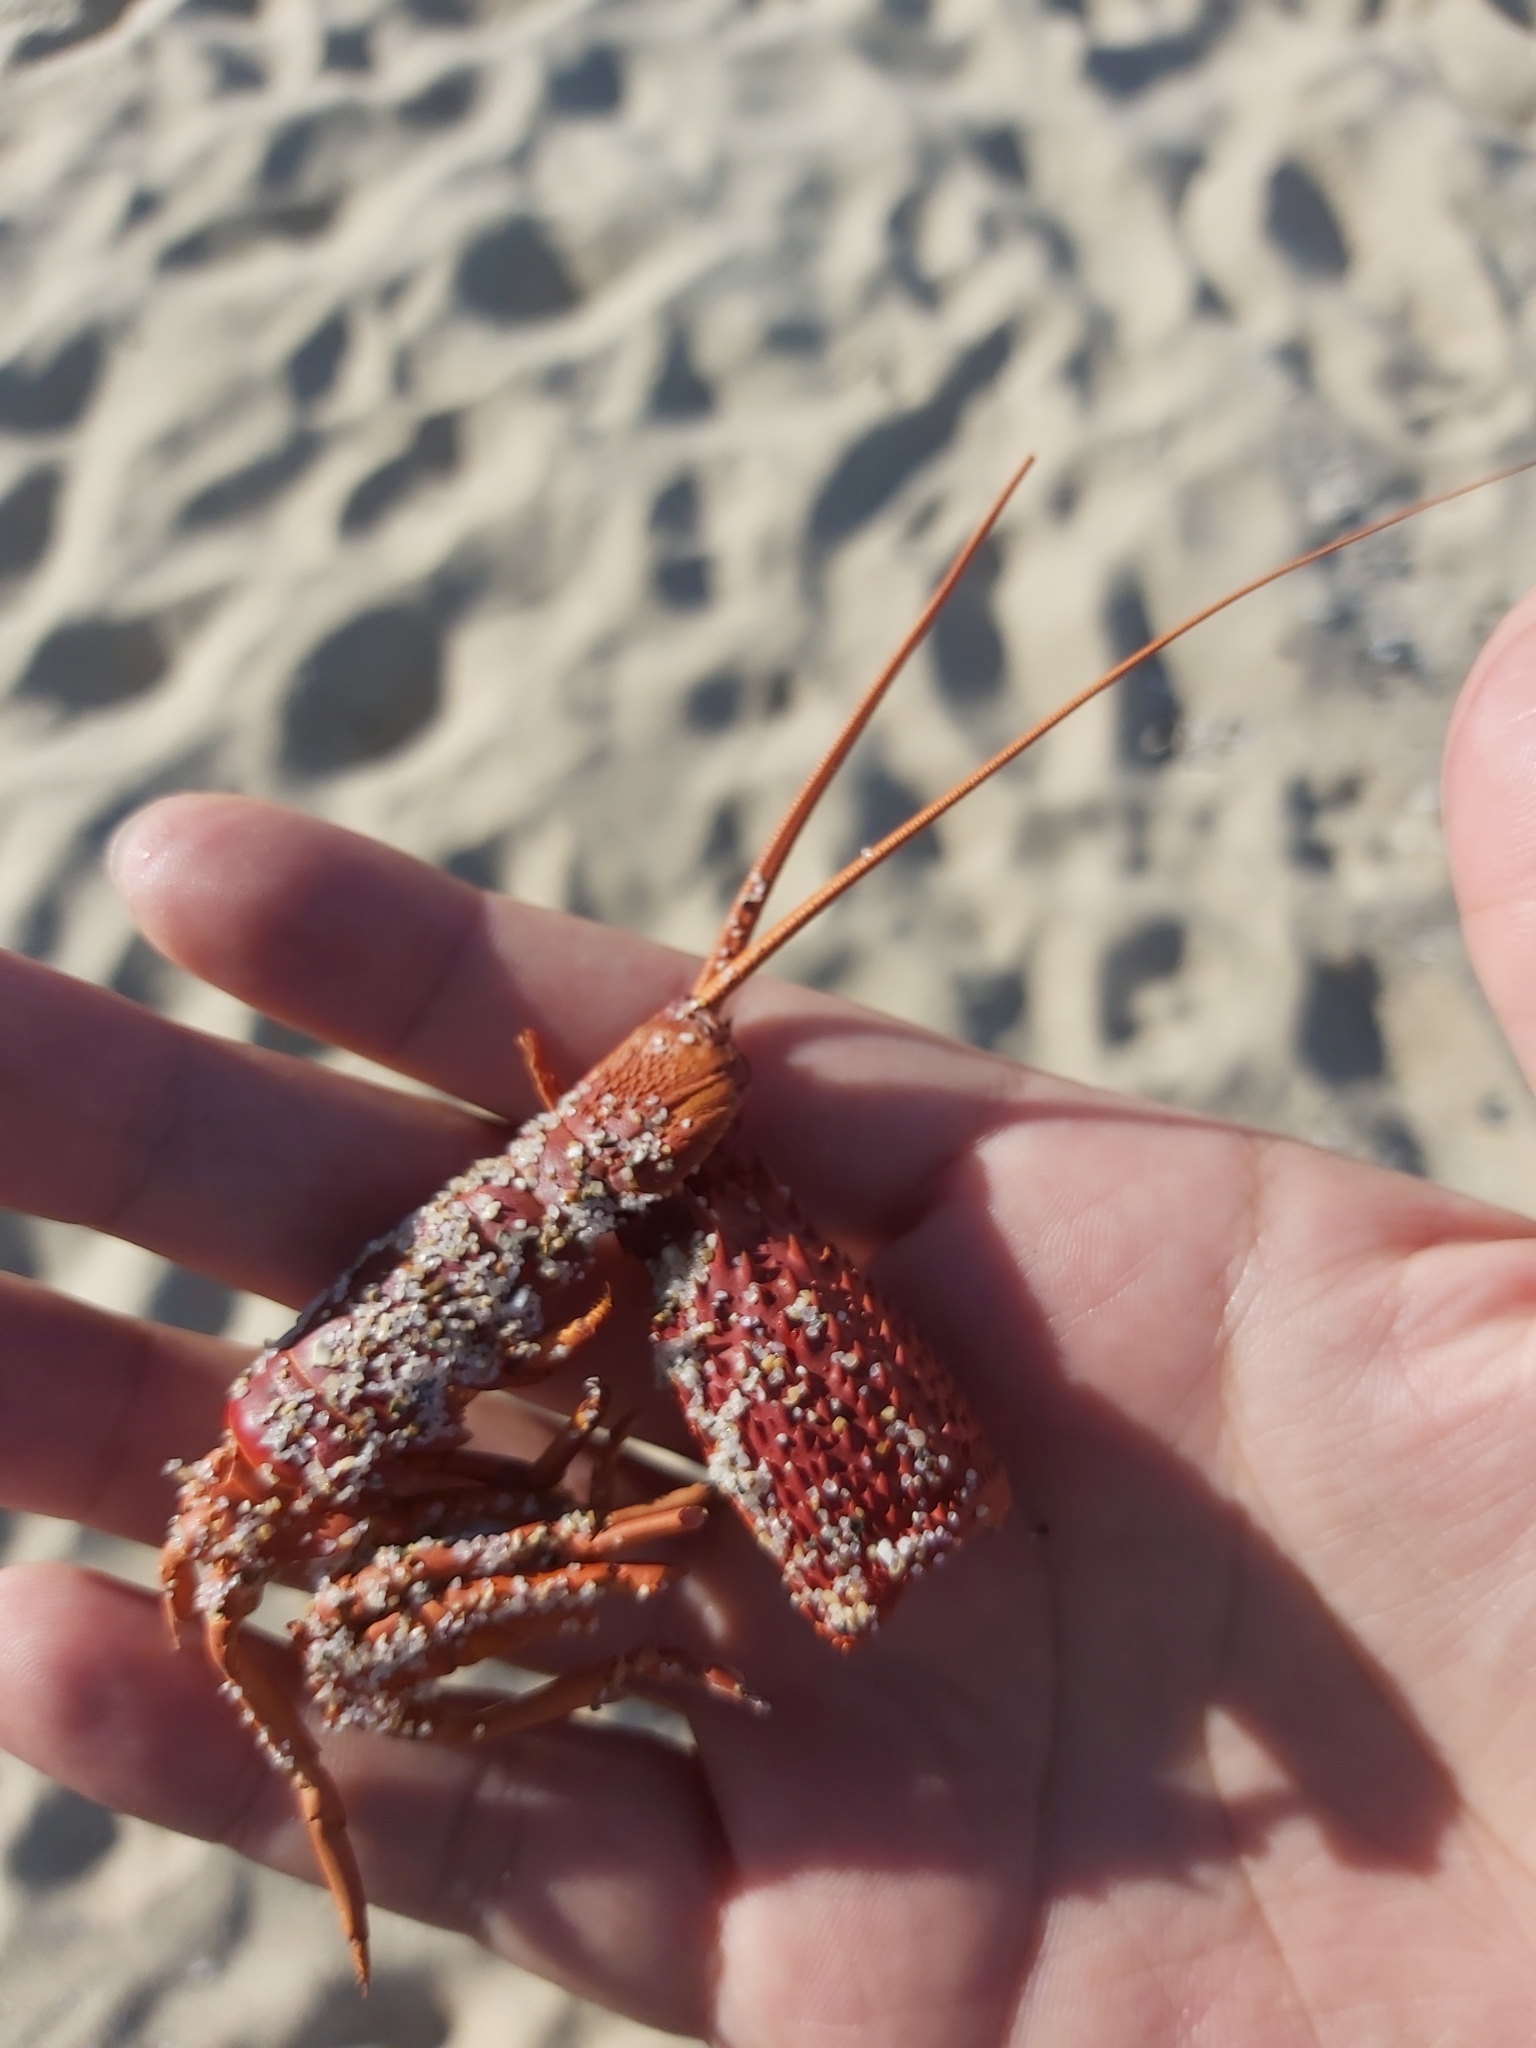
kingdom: Animalia
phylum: Arthropoda
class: Malacostraca
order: Decapoda
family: Palinuridae
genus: Sagmariasus
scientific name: Sagmariasus verreauxi
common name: Green rock lobster
